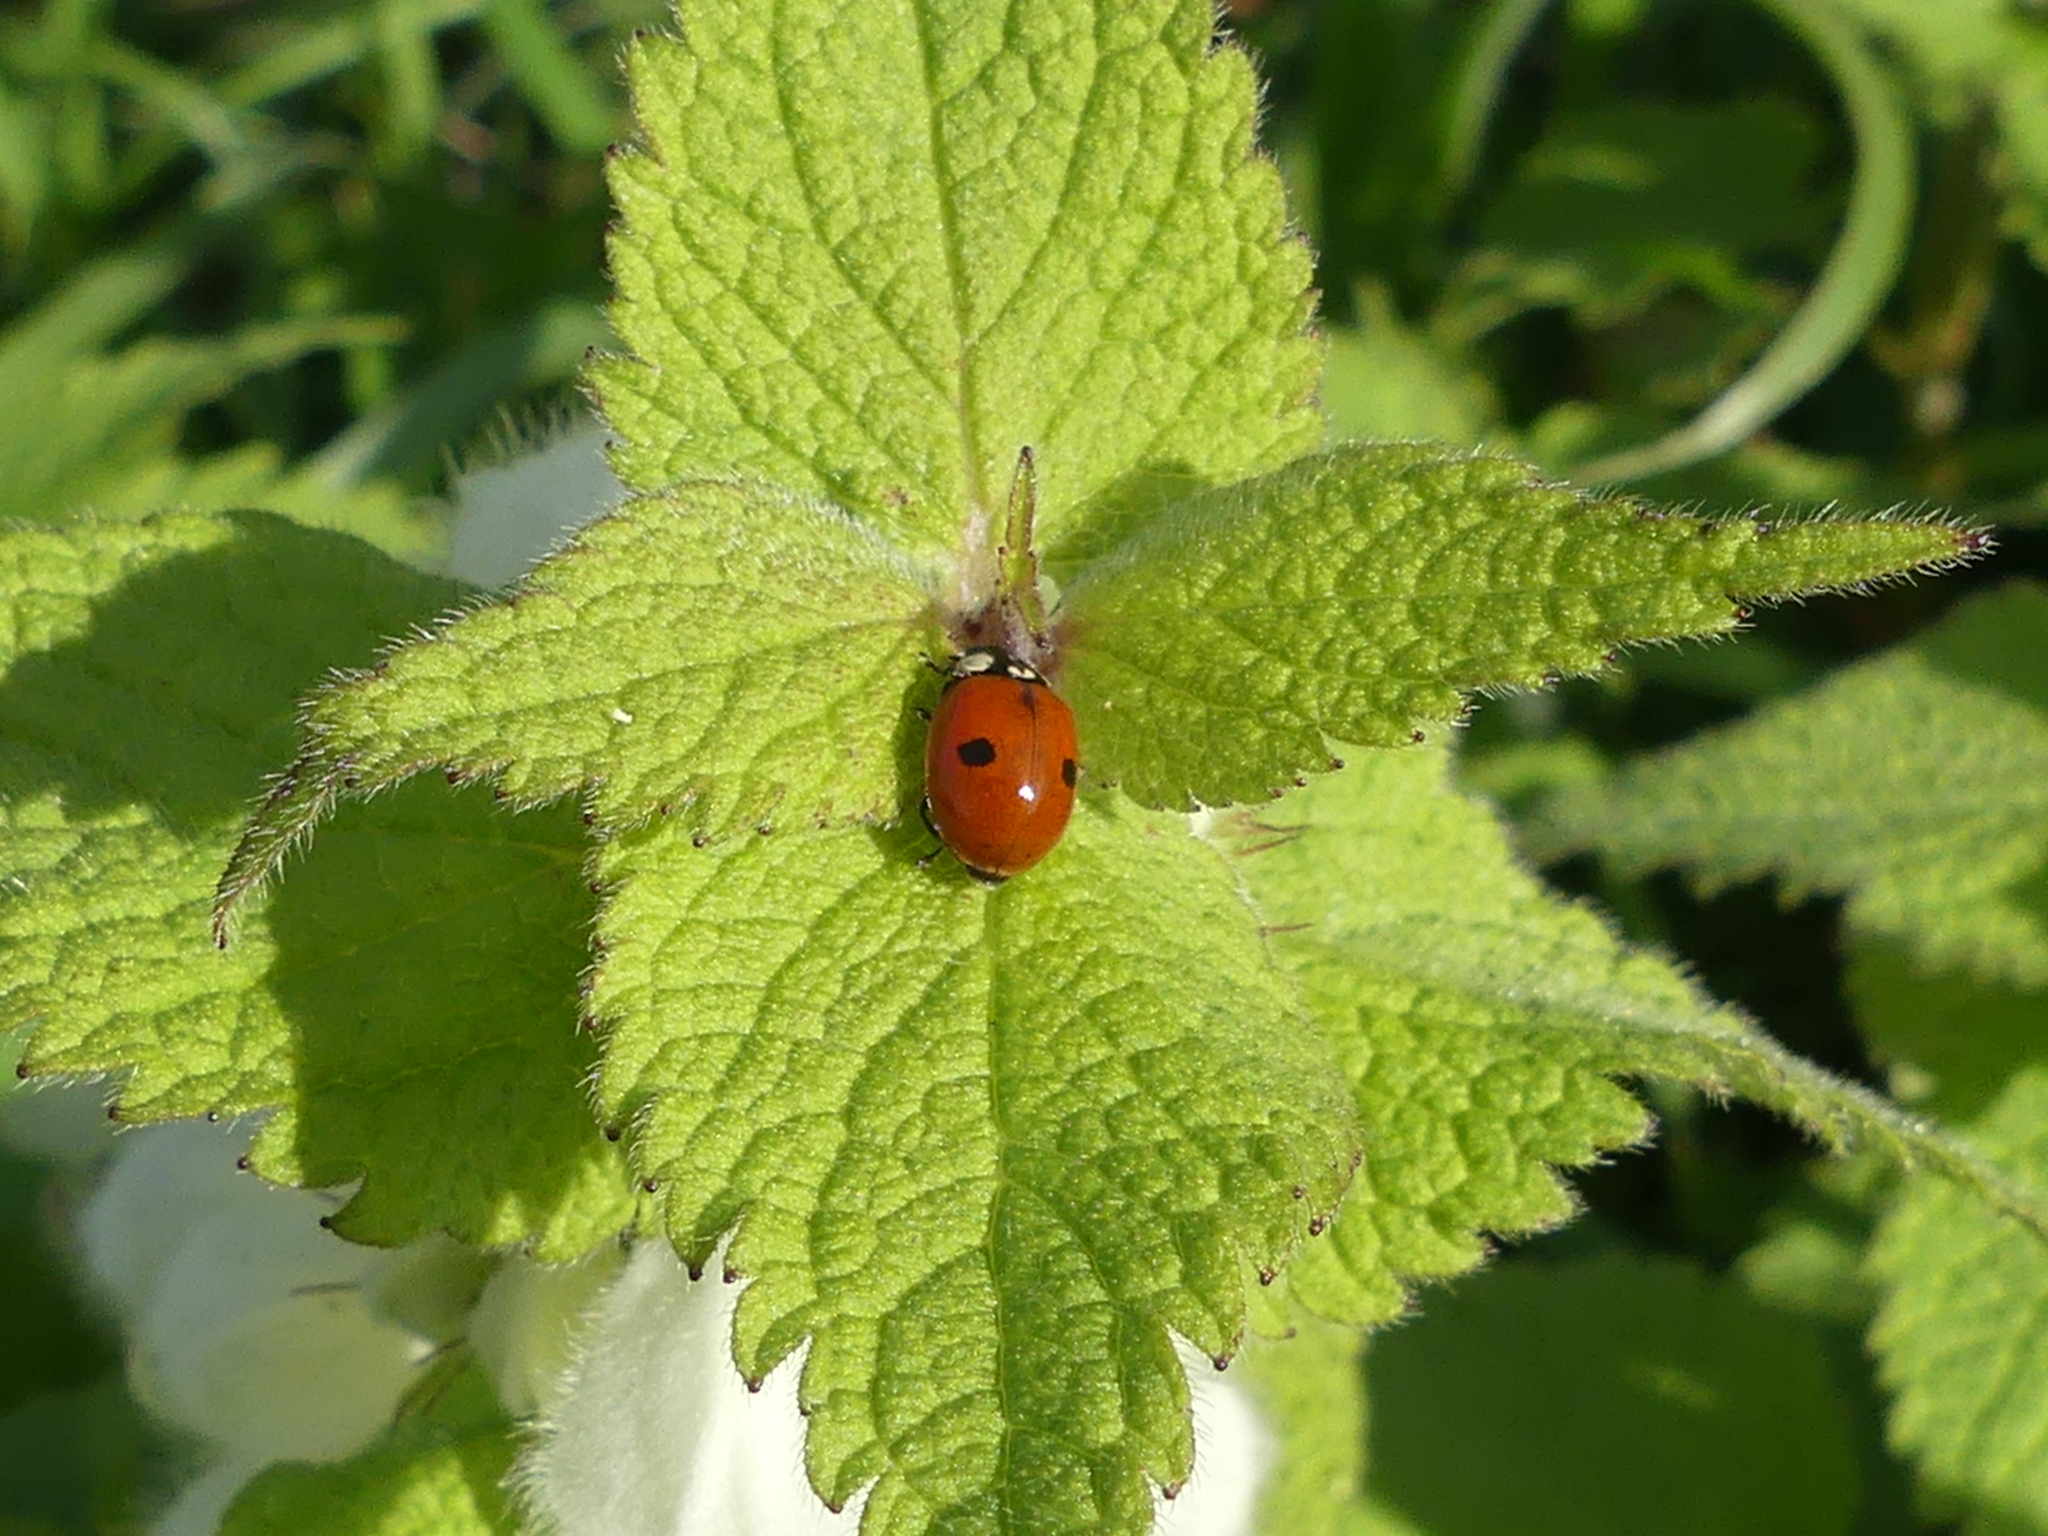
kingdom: Animalia
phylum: Arthropoda
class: Insecta
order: Coleoptera
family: Coccinellidae
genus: Adalia
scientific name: Adalia bipunctata
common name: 2-spot ladybird
